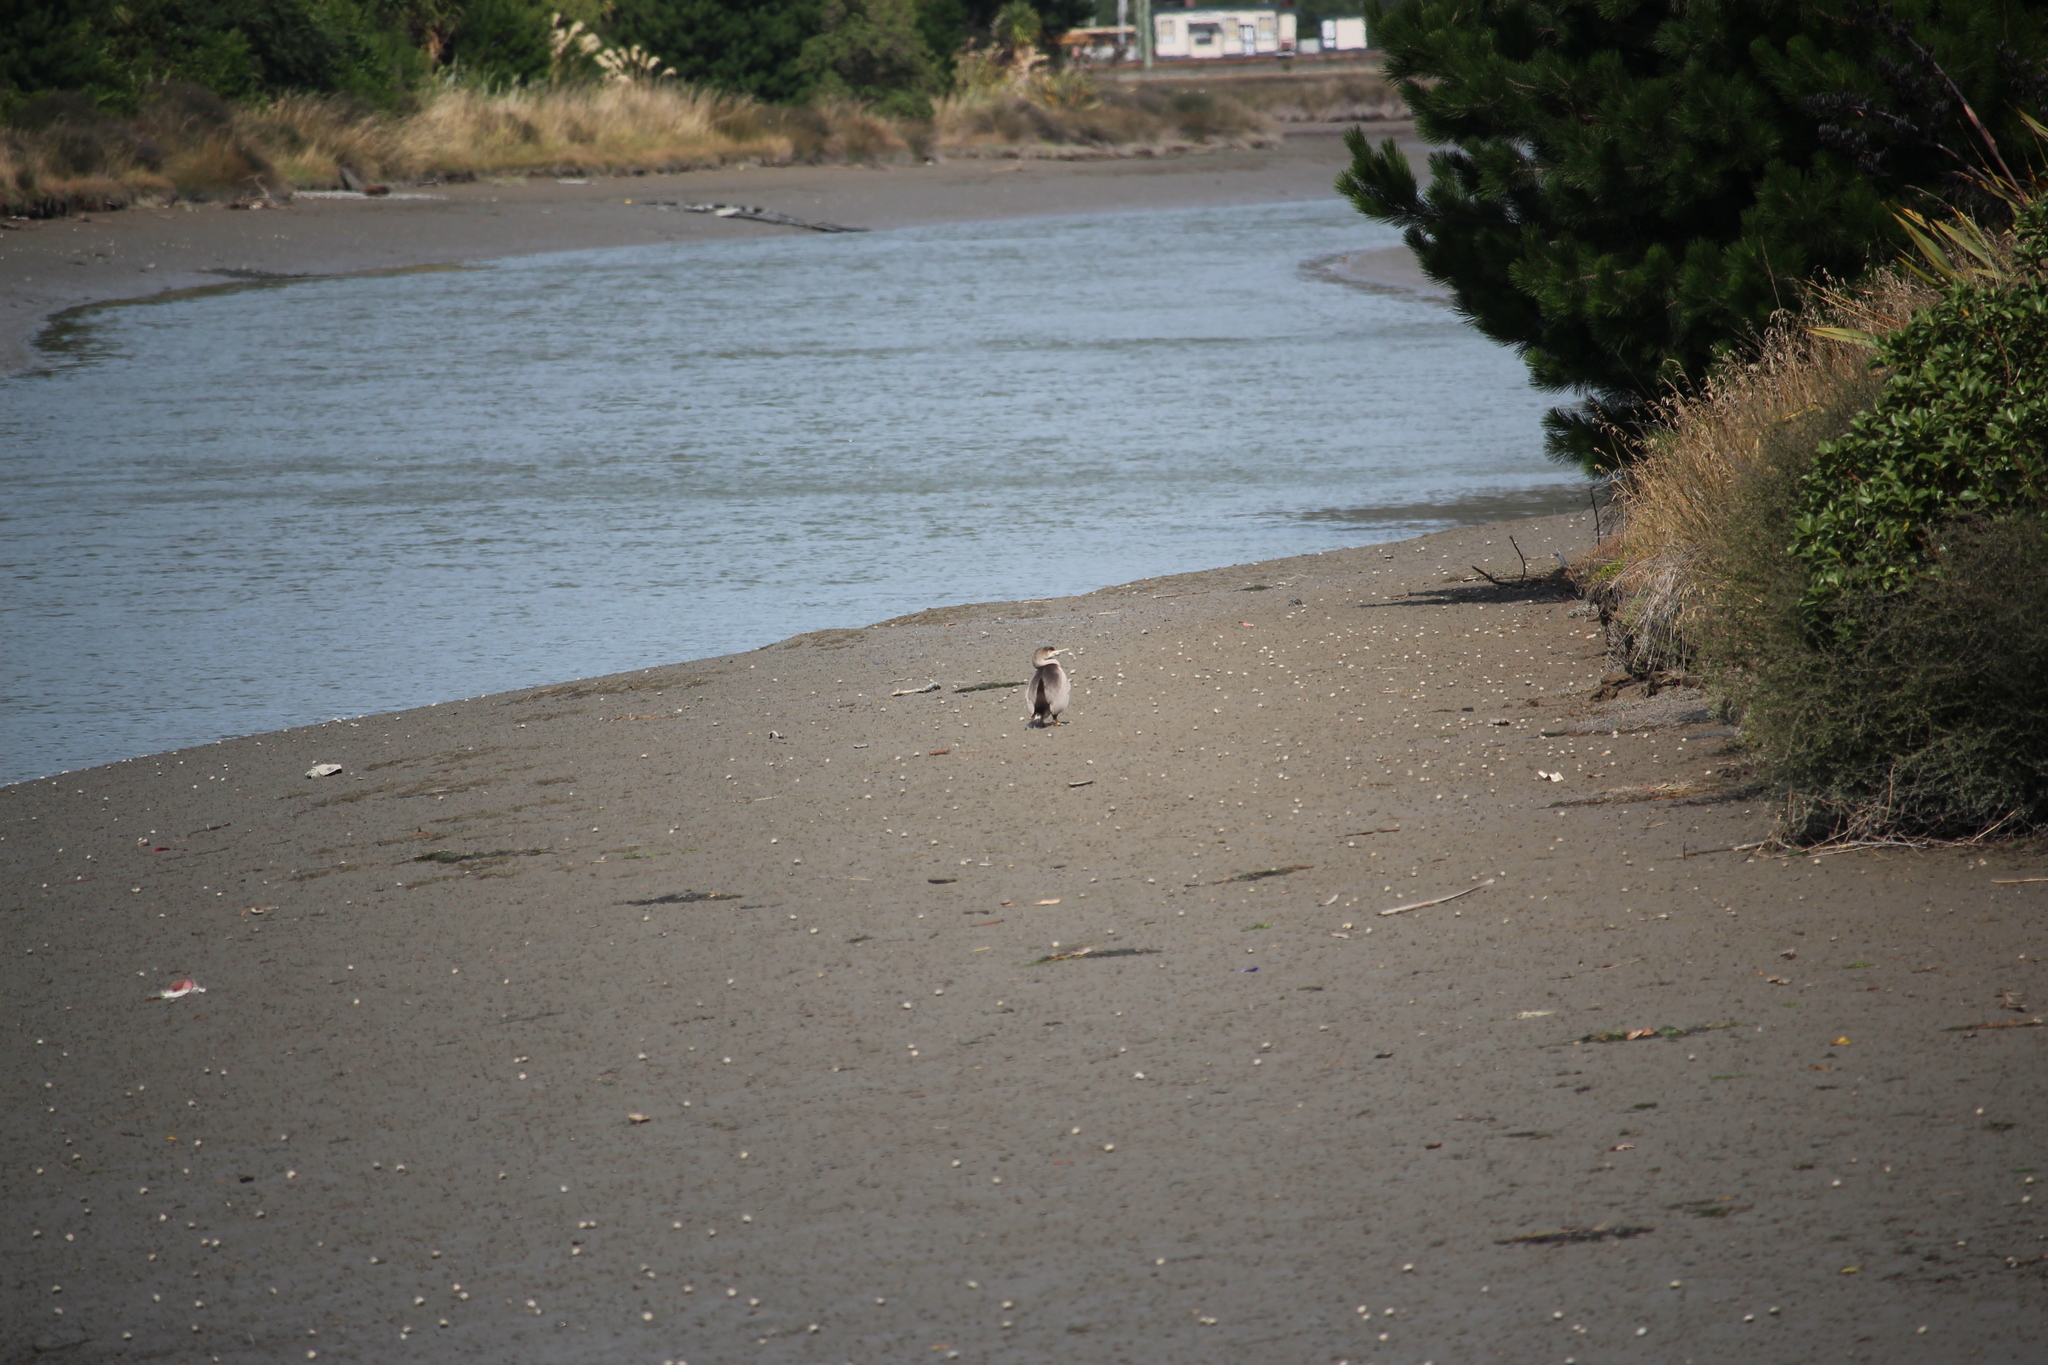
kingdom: Animalia
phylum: Chordata
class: Aves
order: Suliformes
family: Phalacrocoracidae
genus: Phalacrocorax
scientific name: Phalacrocorax punctatus
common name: Spotted shag
